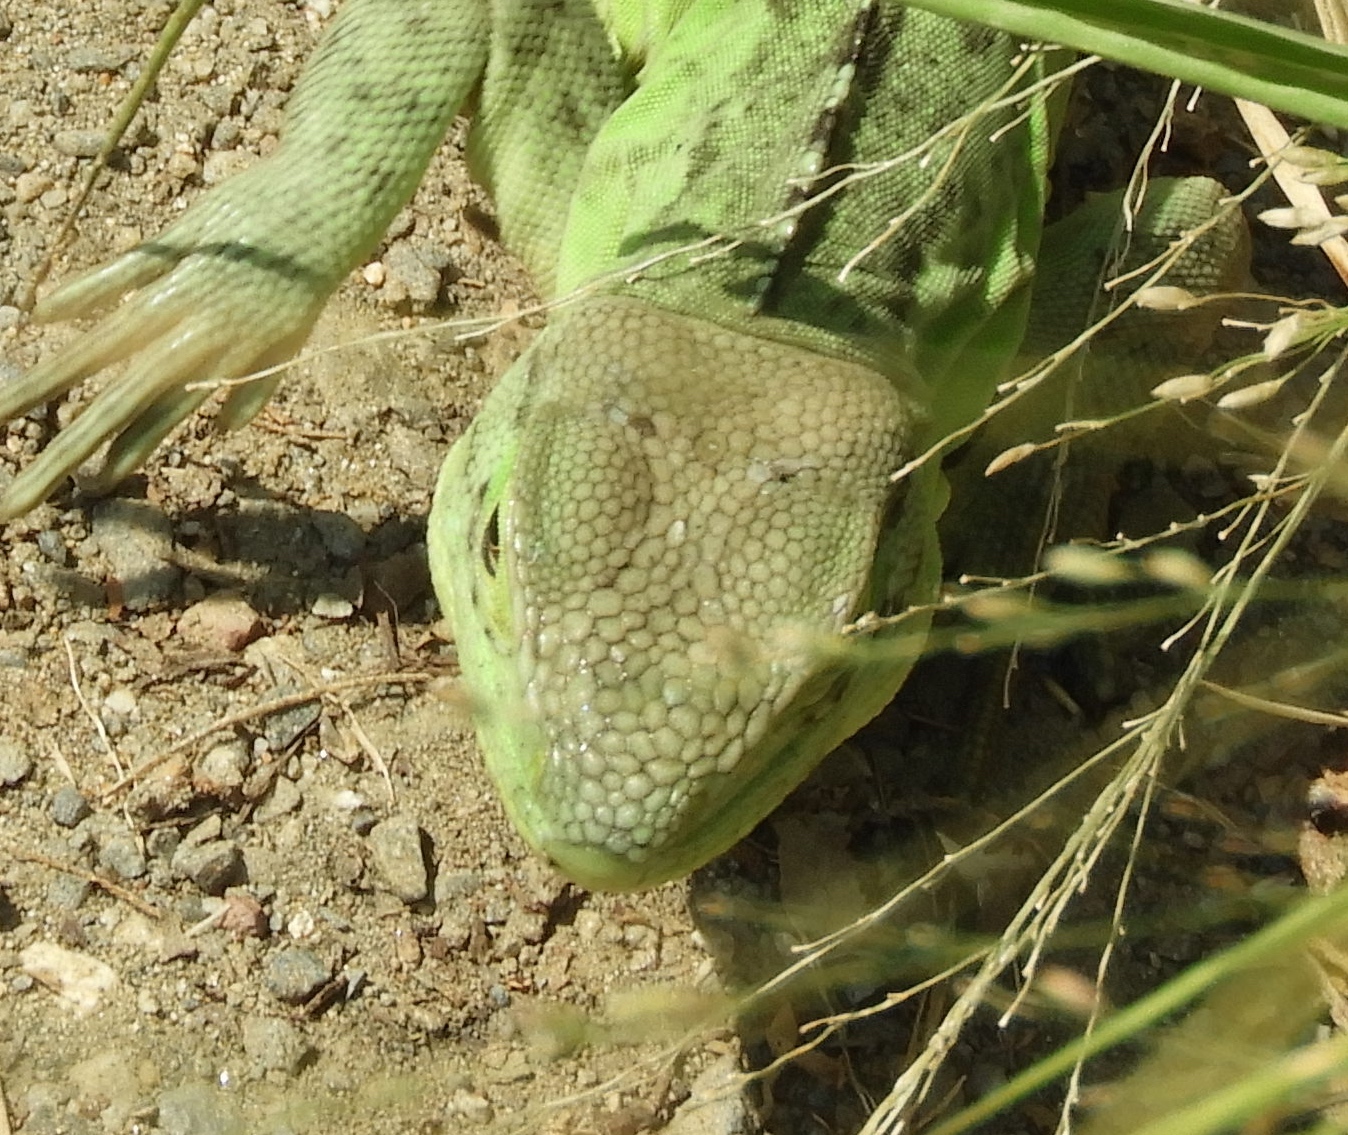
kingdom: Animalia
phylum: Chordata
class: Squamata
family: Iguanidae
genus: Ctenosaura
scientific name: Ctenosaura pectinata
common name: Guerreran spiny-tailed iguana
